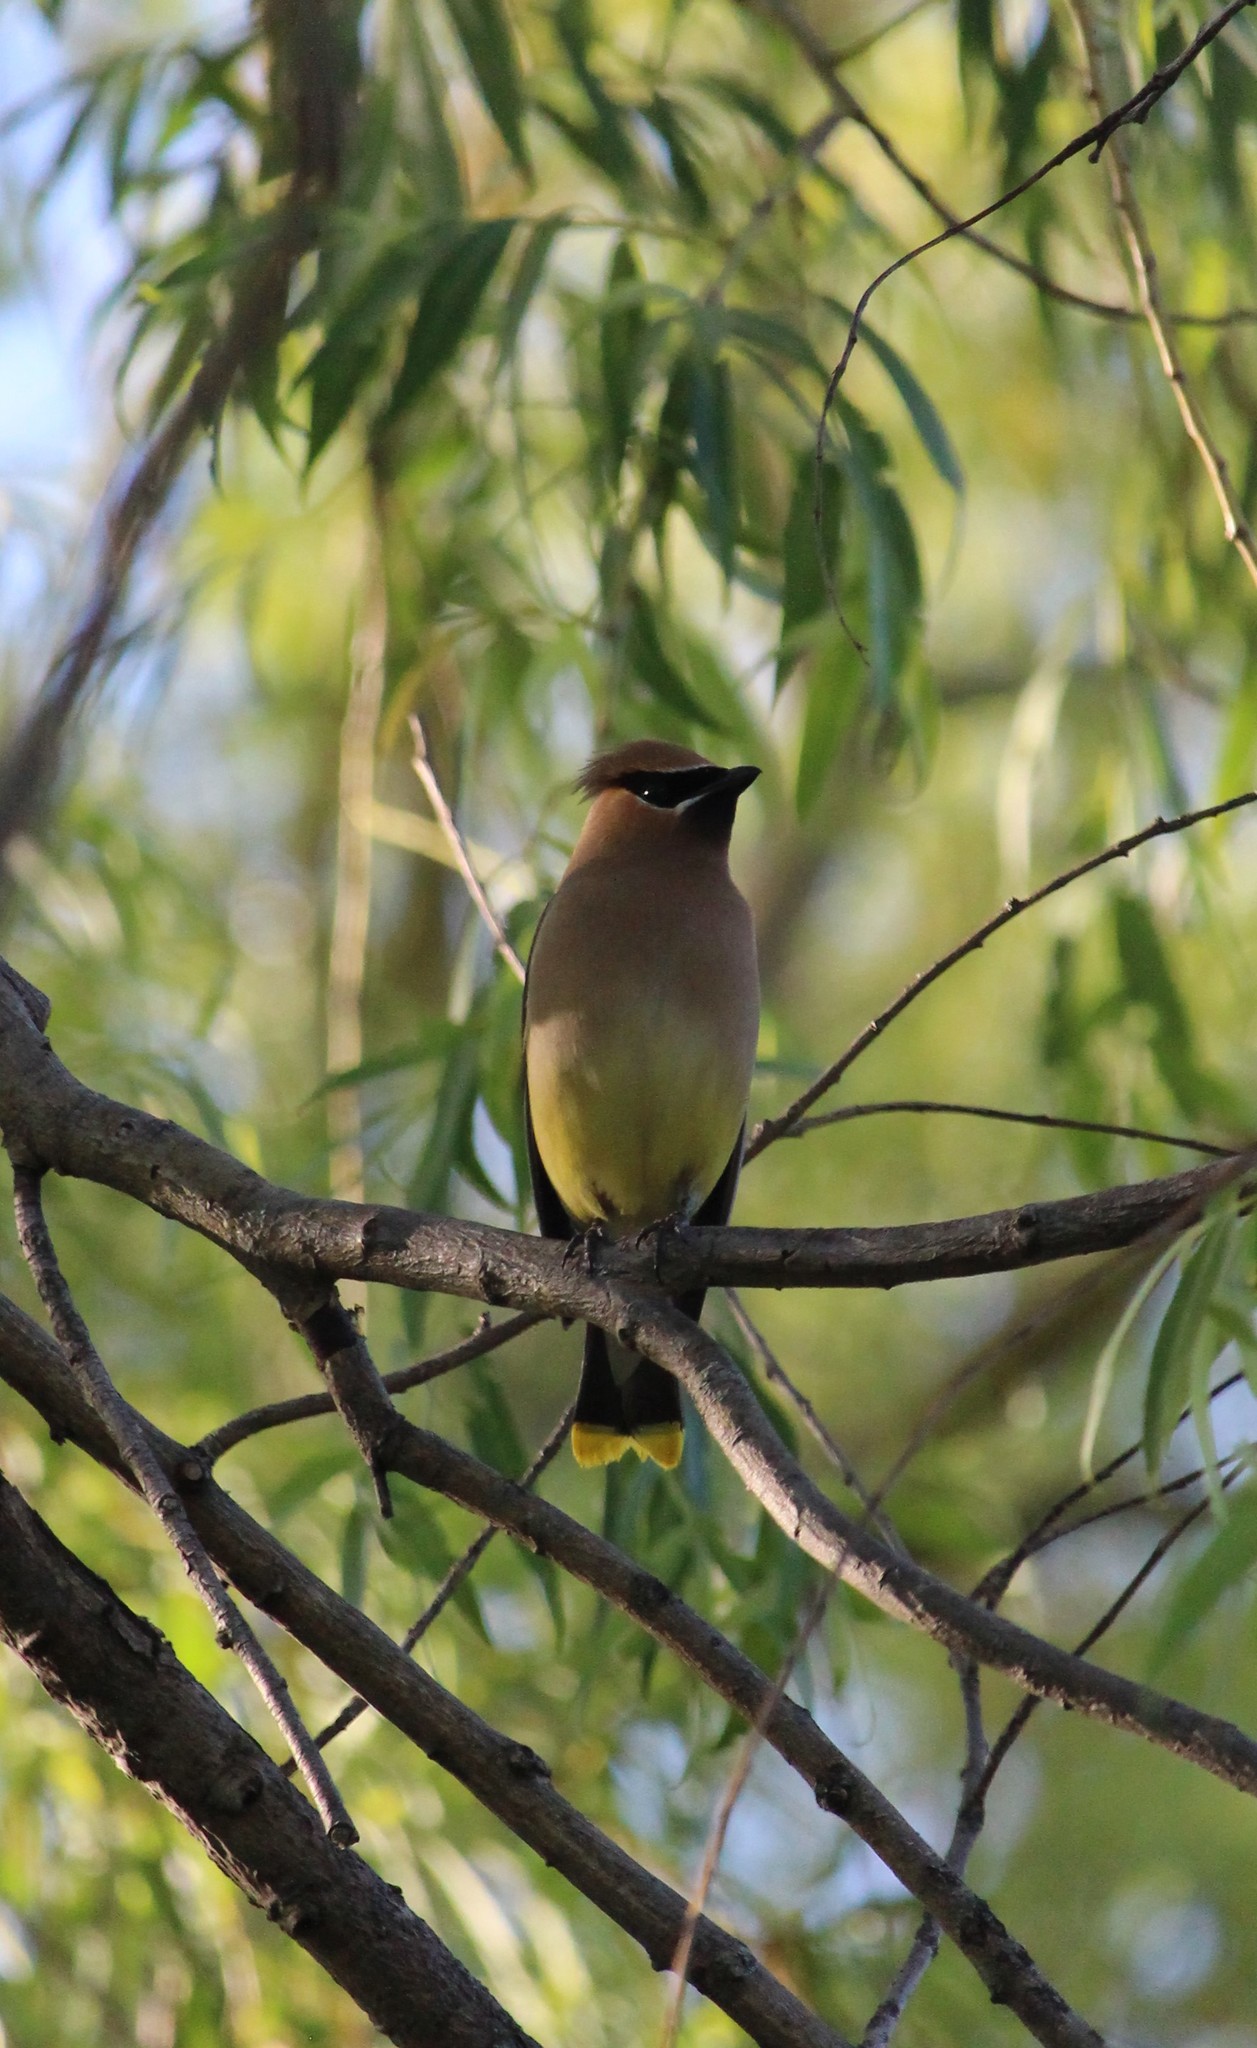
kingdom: Animalia
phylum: Chordata
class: Aves
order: Passeriformes
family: Bombycillidae
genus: Bombycilla
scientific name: Bombycilla cedrorum
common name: Cedar waxwing
